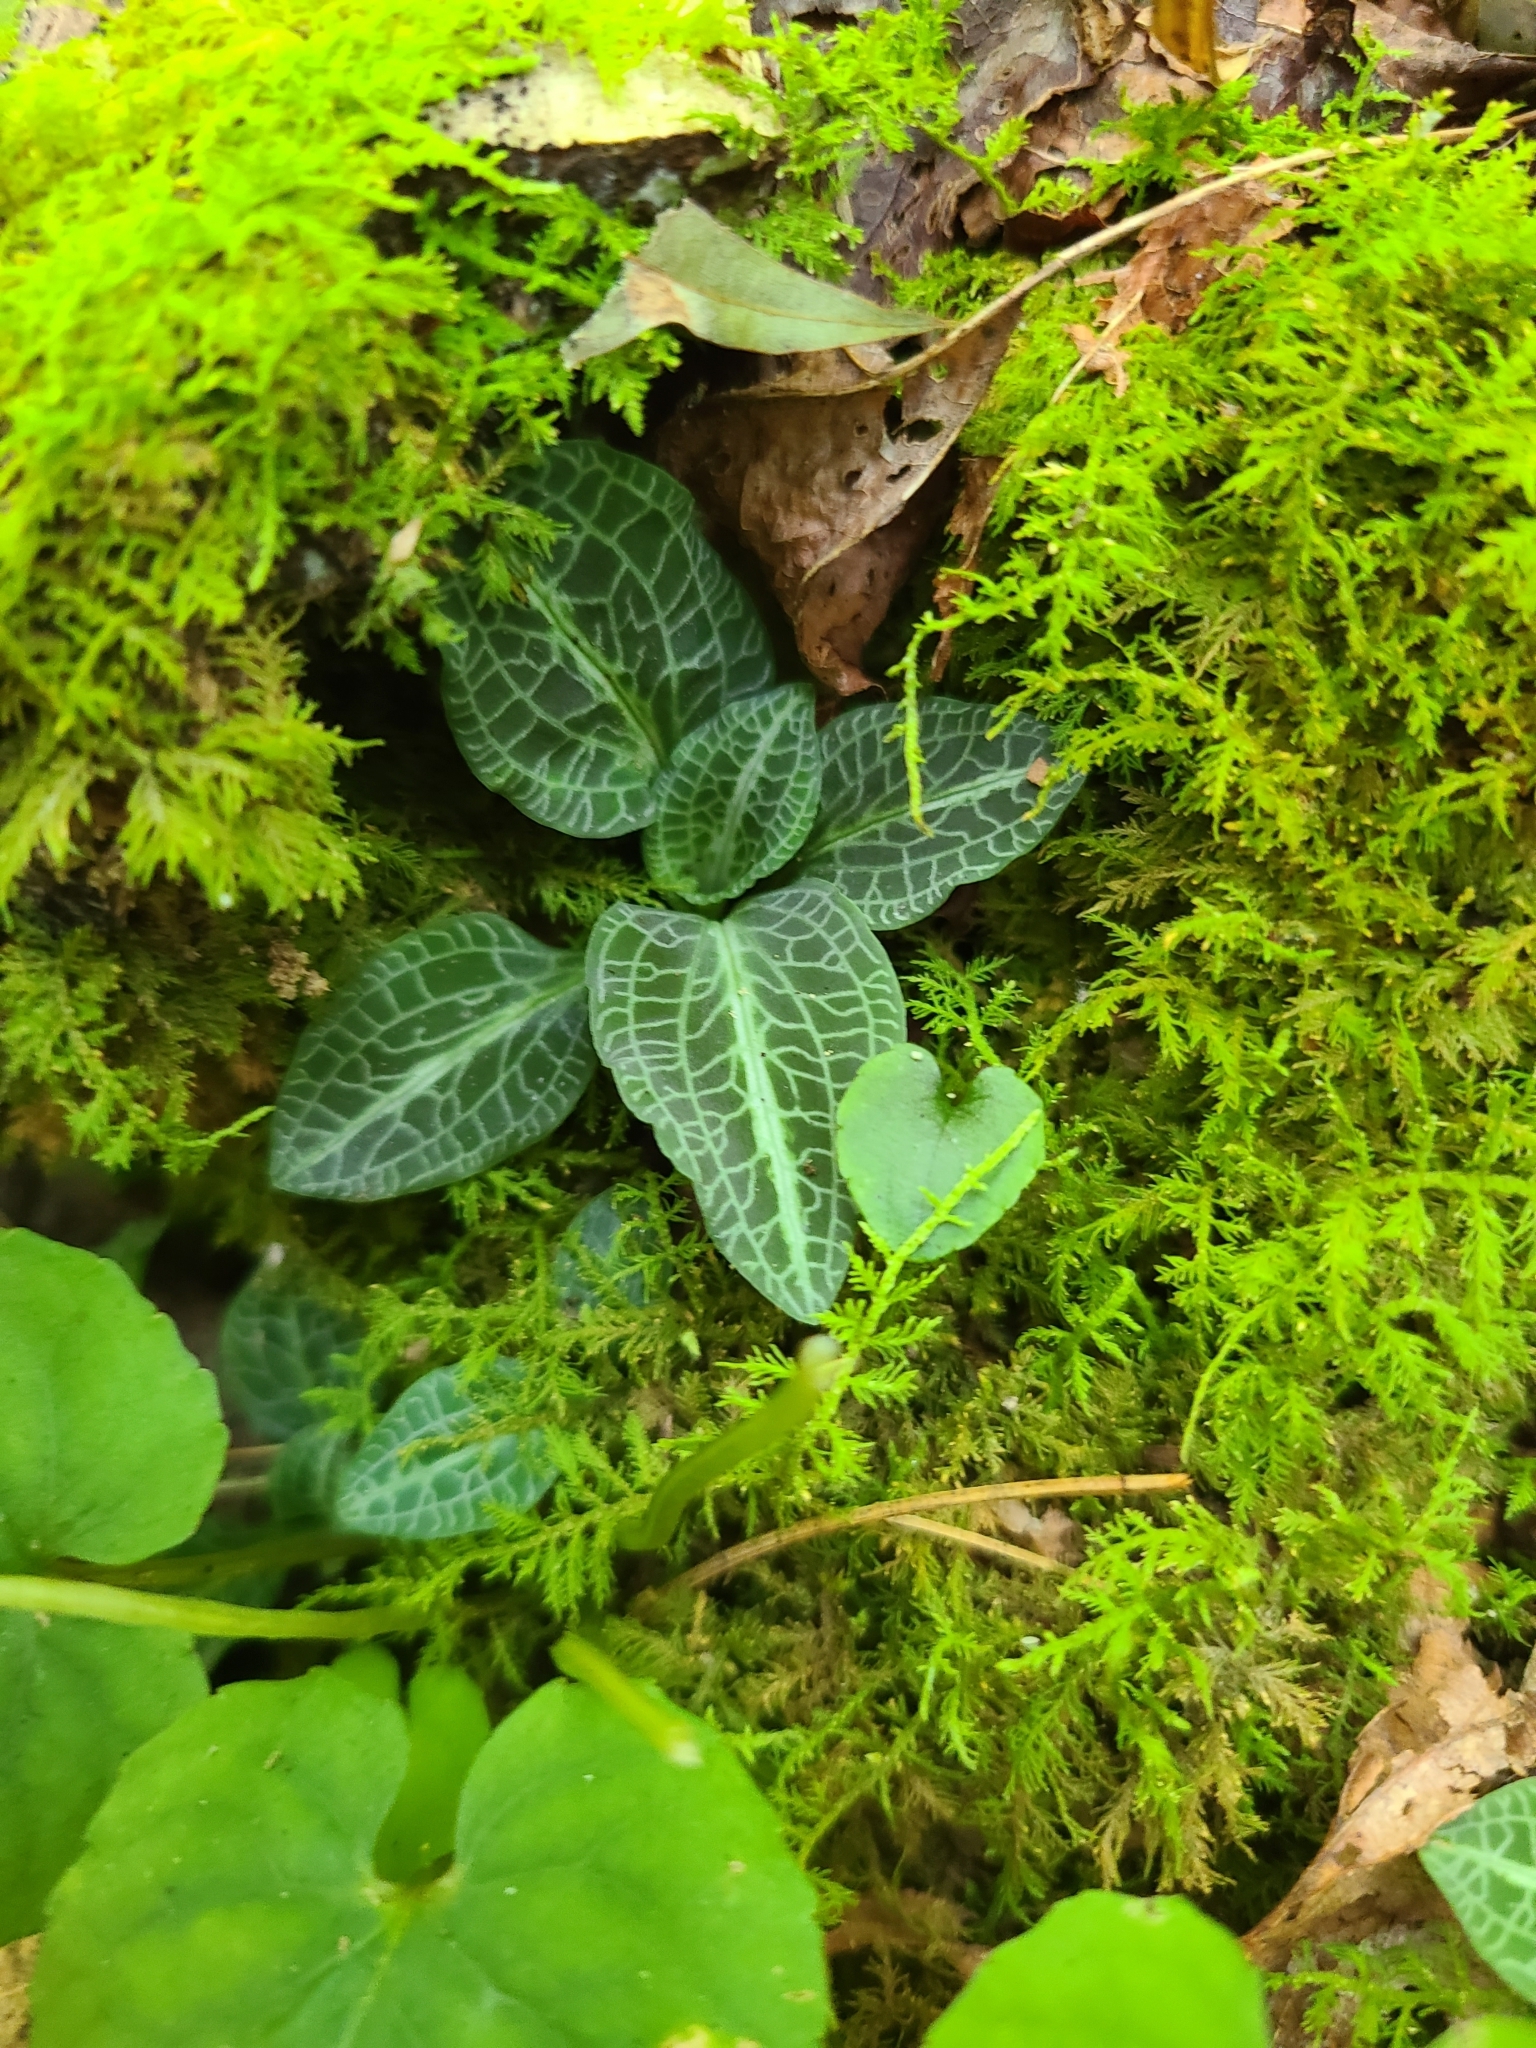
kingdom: Plantae
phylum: Tracheophyta
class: Liliopsida
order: Asparagales
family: Orchidaceae
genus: Goodyera
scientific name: Goodyera pubescens
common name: Downy rattlesnake-plantain
